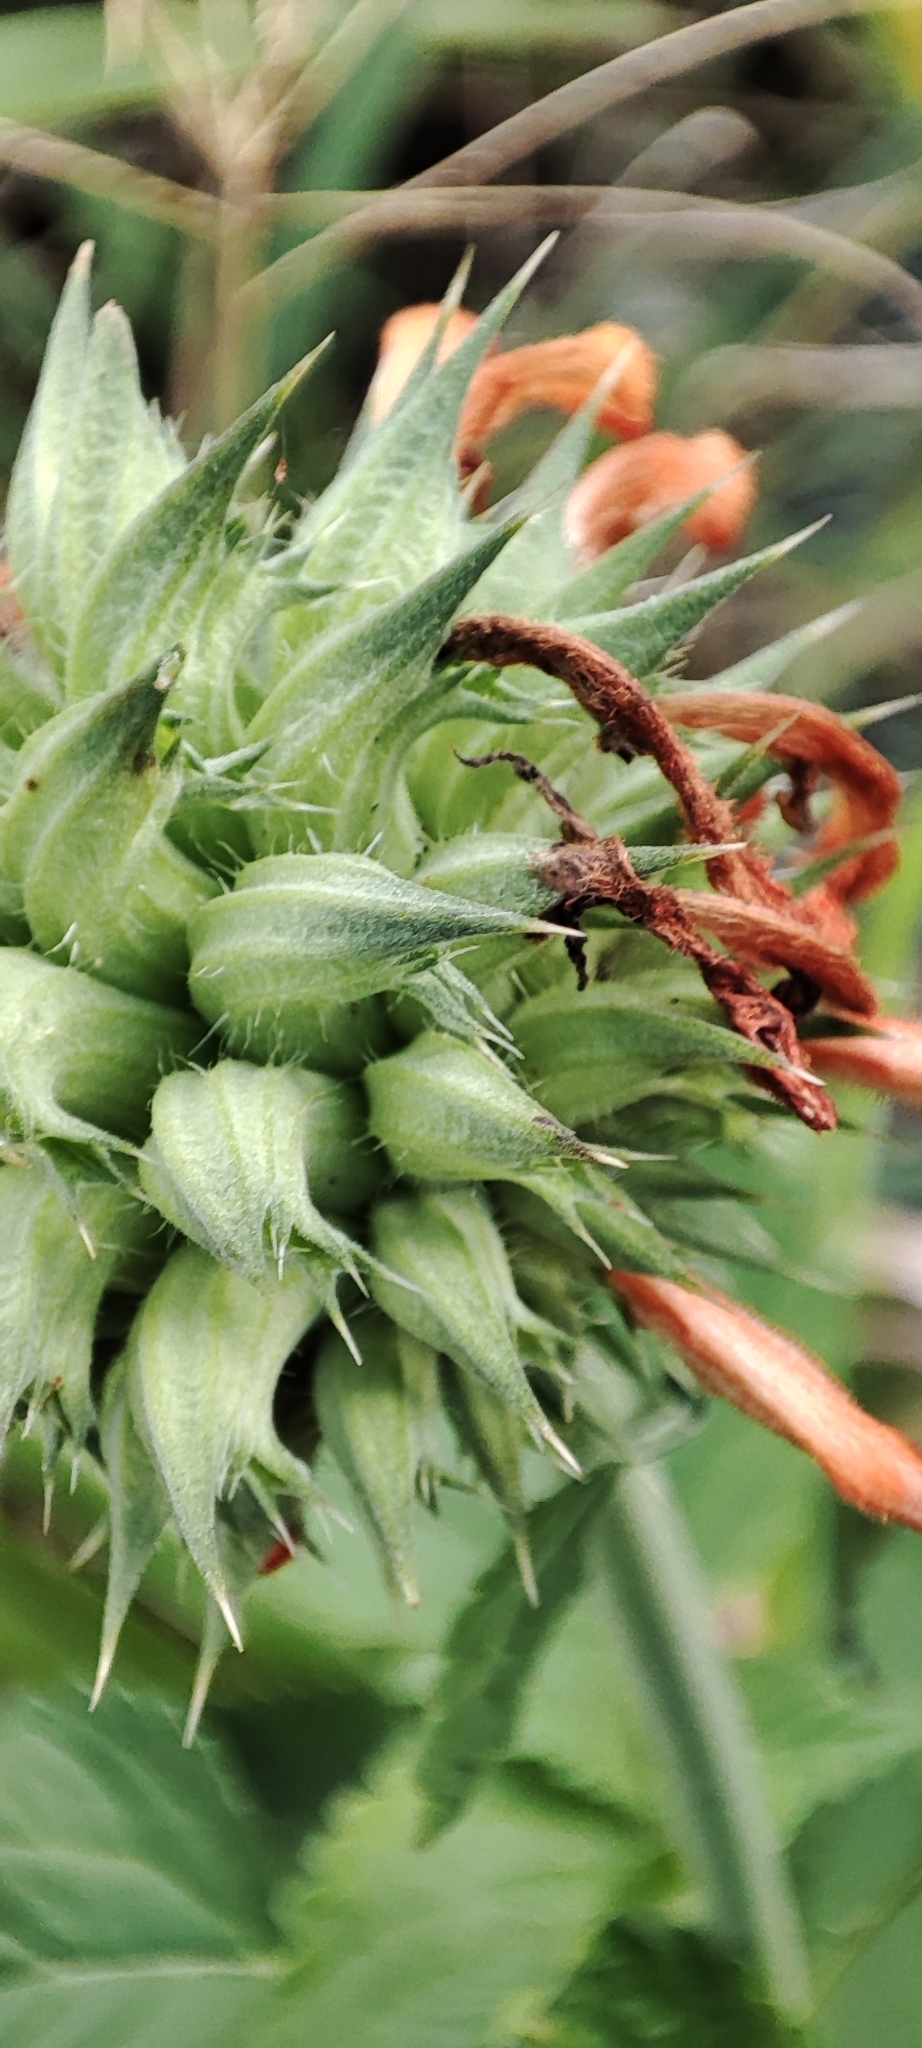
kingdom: Plantae
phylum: Tracheophyta
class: Magnoliopsida
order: Lamiales
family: Lamiaceae
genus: Leonotis
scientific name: Leonotis nepetifolia
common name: Christmas candlestick
